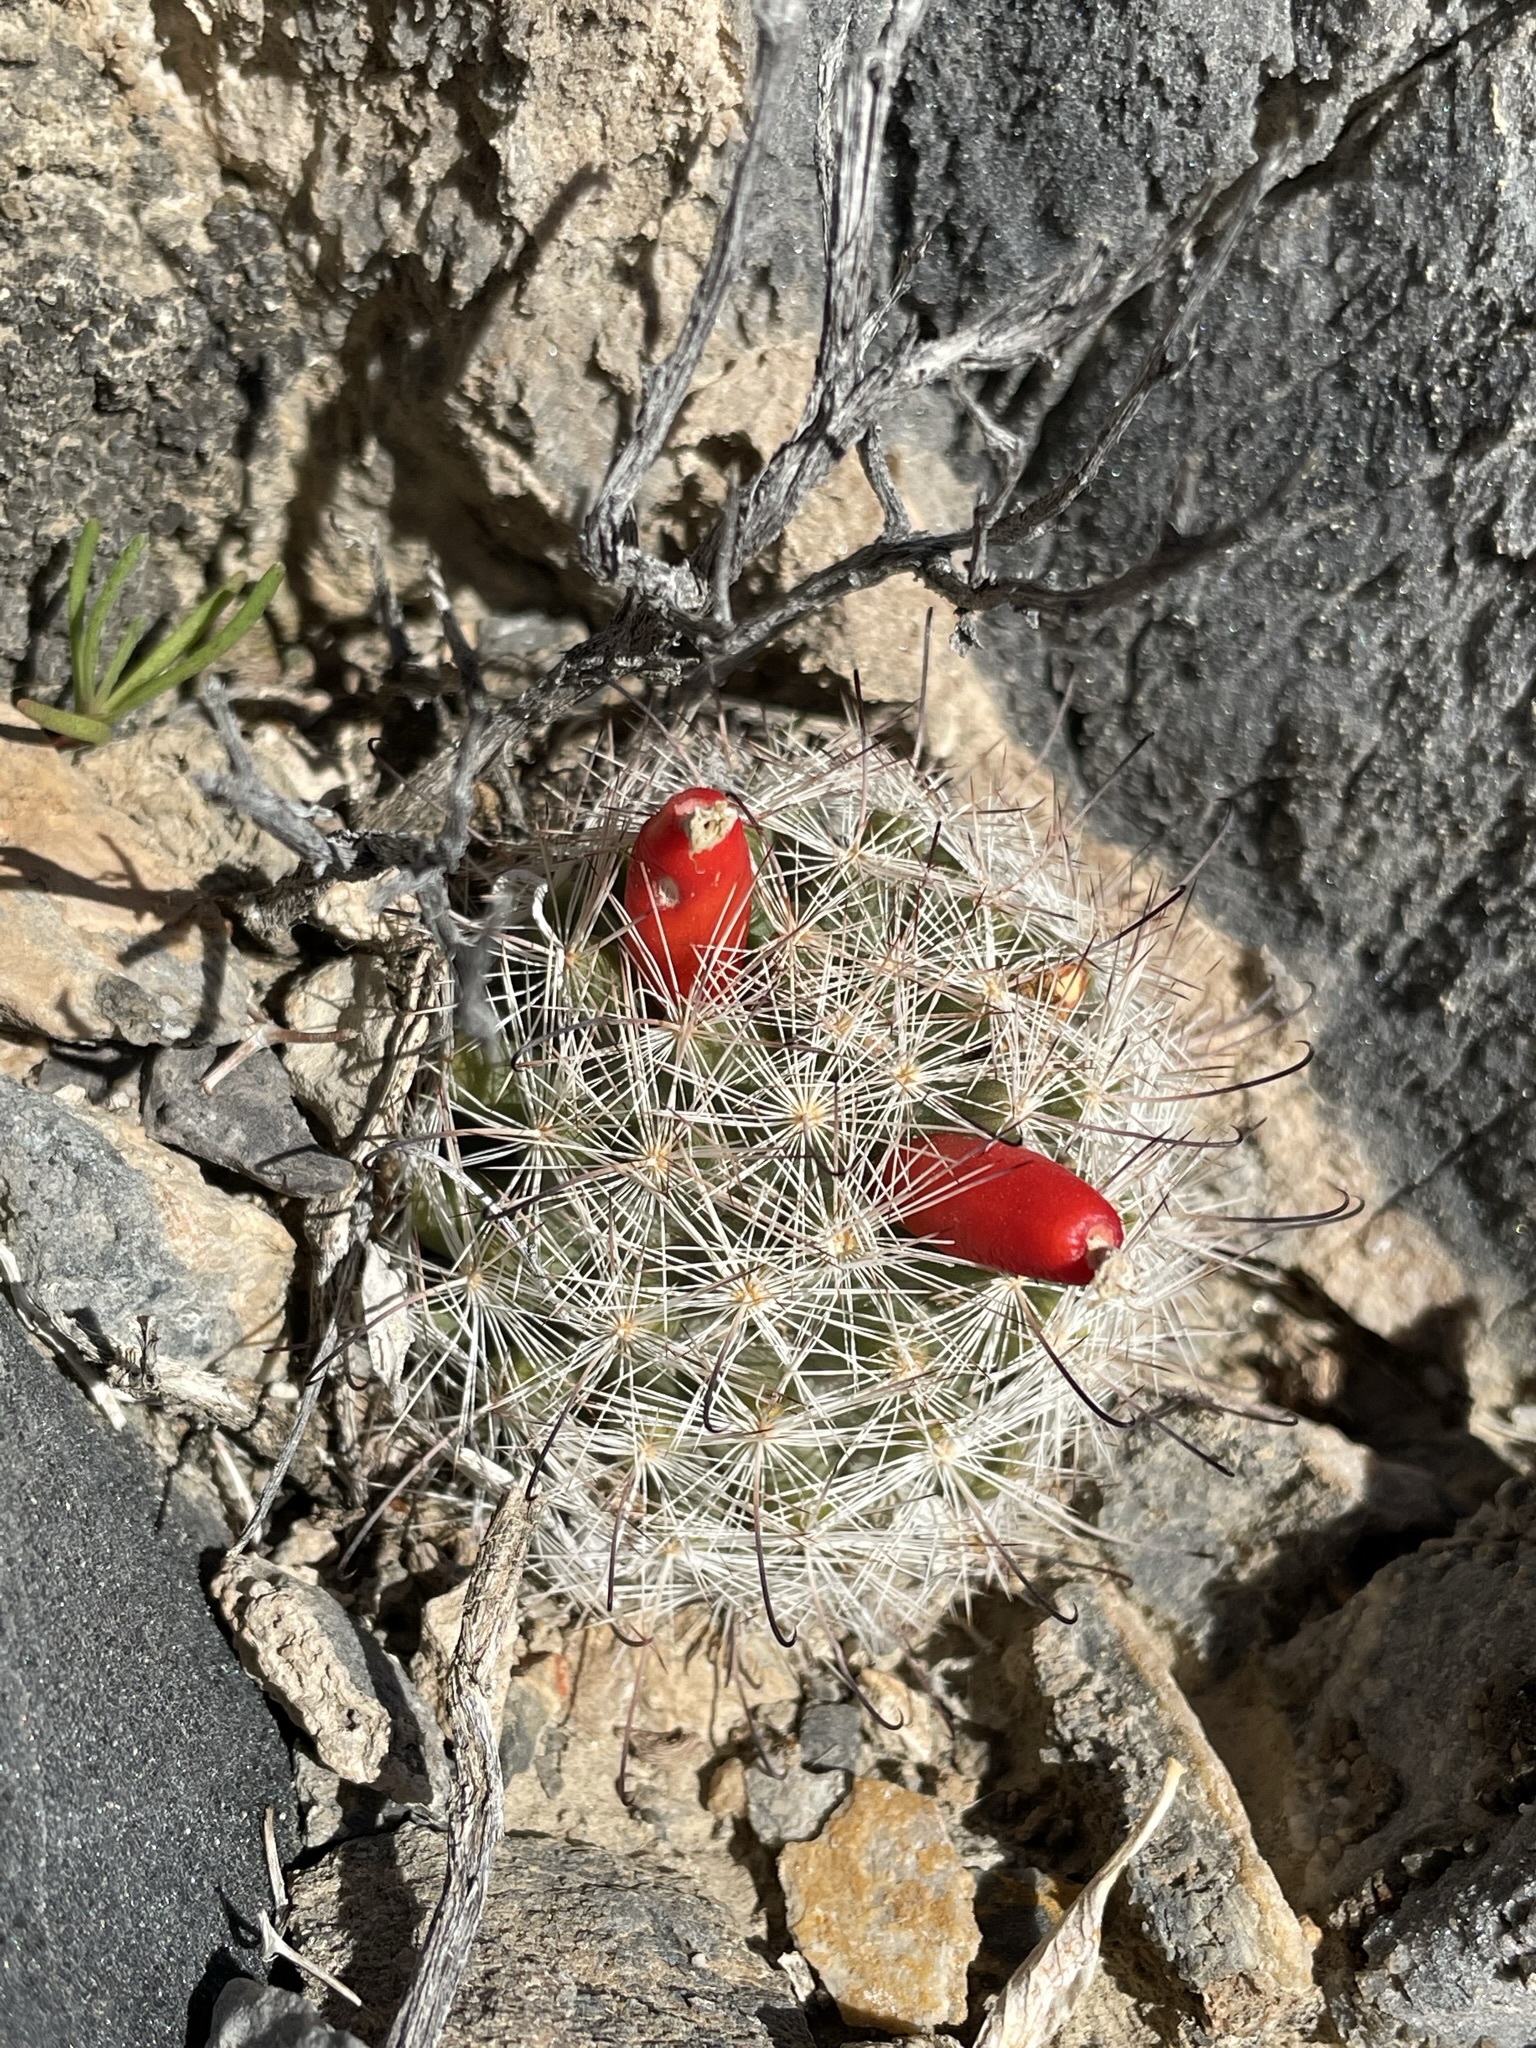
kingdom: Plantae
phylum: Tracheophyta
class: Magnoliopsida
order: Caryophyllales
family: Cactaceae
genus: Cochemiea
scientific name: Cochemiea tetrancistra
